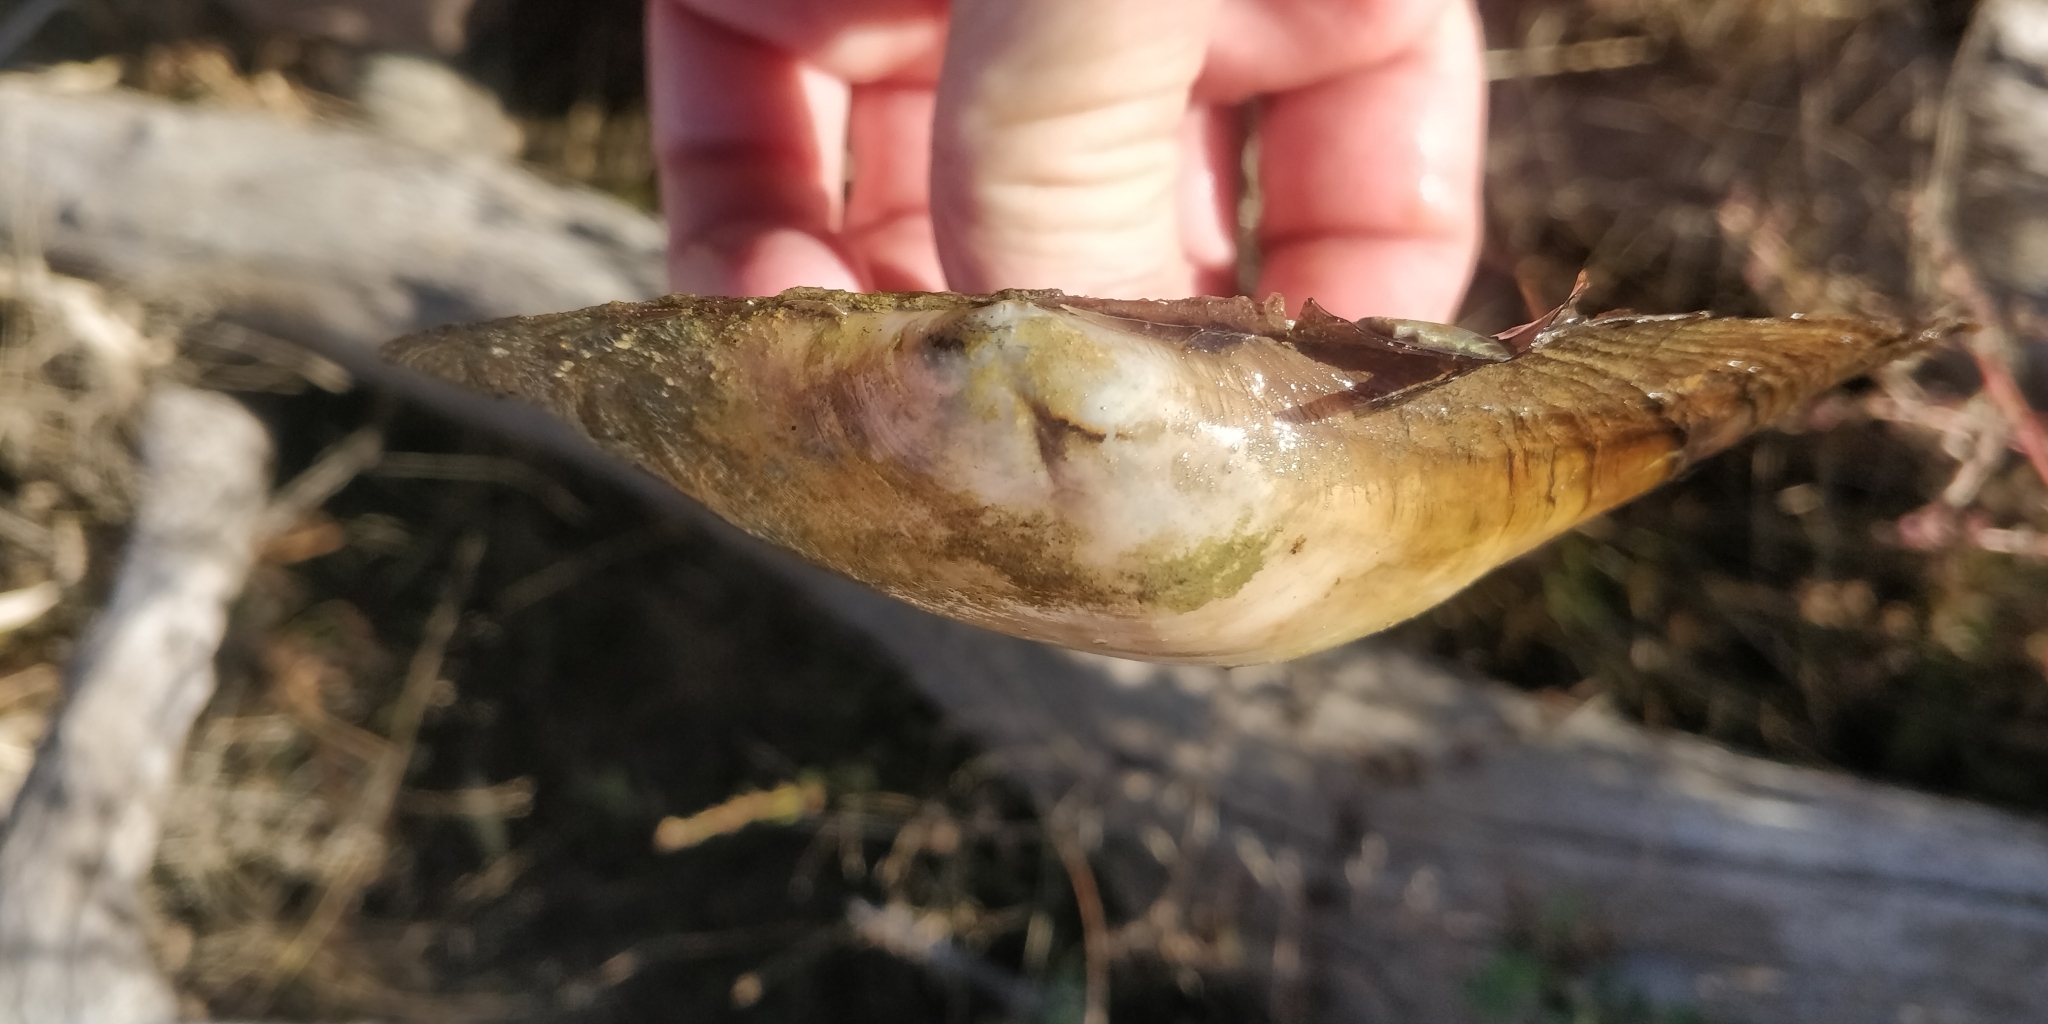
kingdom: Animalia
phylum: Mollusca
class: Bivalvia
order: Unionida
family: Unionidae
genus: Pyganodon
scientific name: Pyganodon grandis
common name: Giant floater
